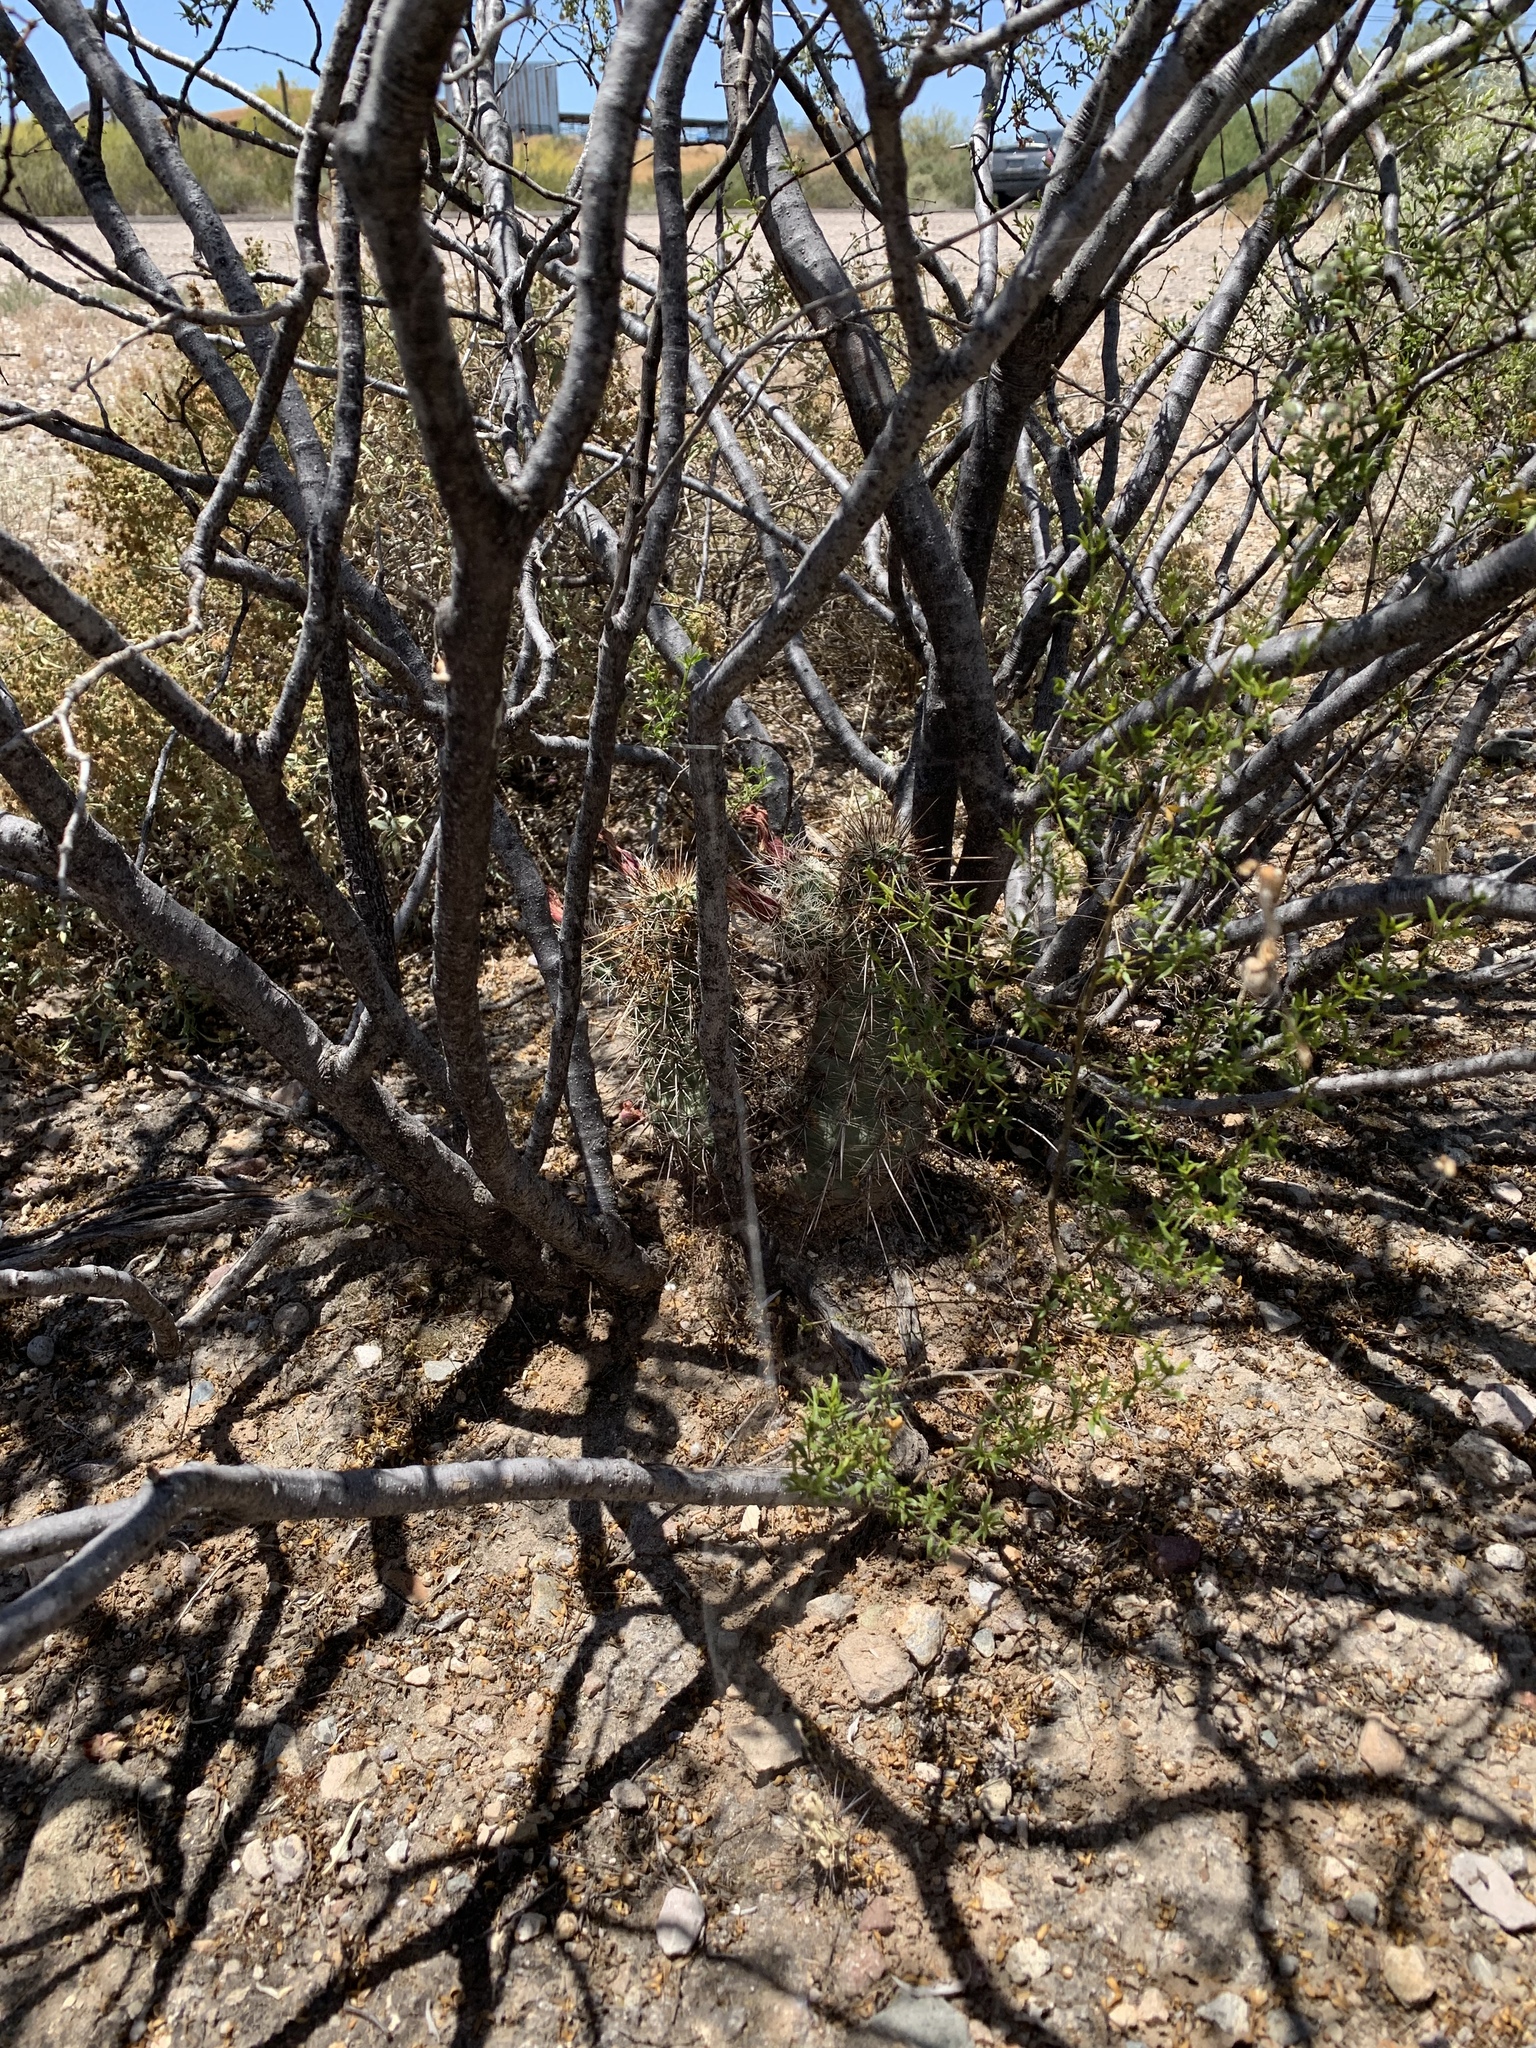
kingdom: Plantae
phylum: Tracheophyta
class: Magnoliopsida
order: Caryophyllales
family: Cactaceae
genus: Echinocereus
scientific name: Echinocereus fasciculatus
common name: Bundle hedgehog
